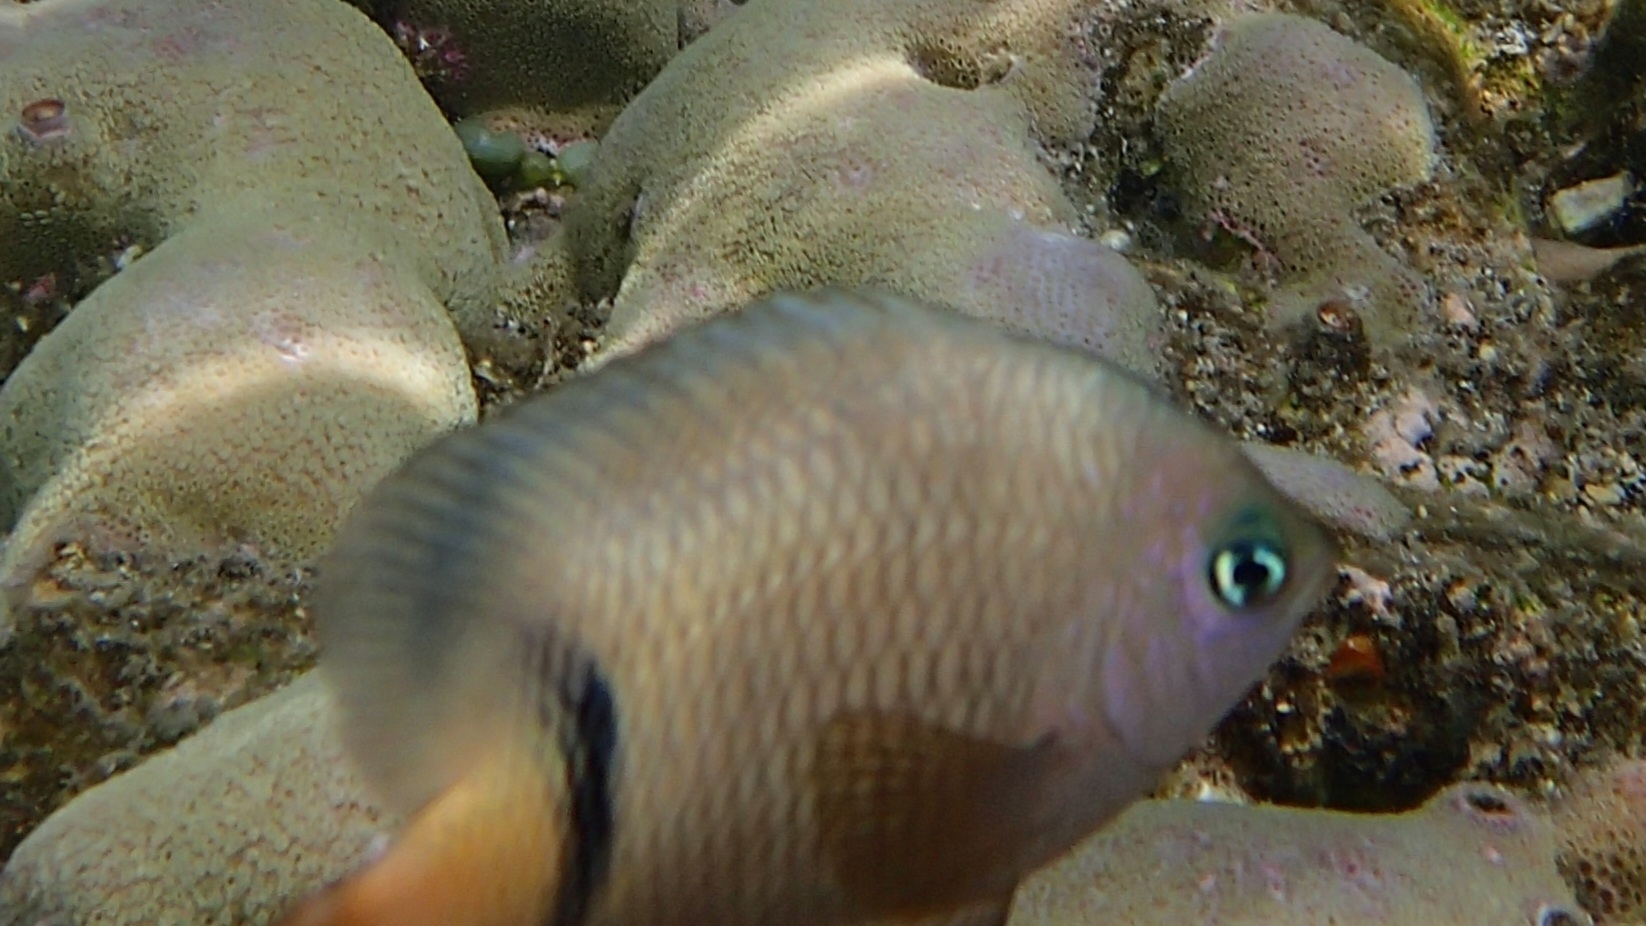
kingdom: Animalia
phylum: Chordata
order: Perciformes
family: Pomacentridae
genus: Plectroglyphidodon
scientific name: Plectroglyphidodon dickii
